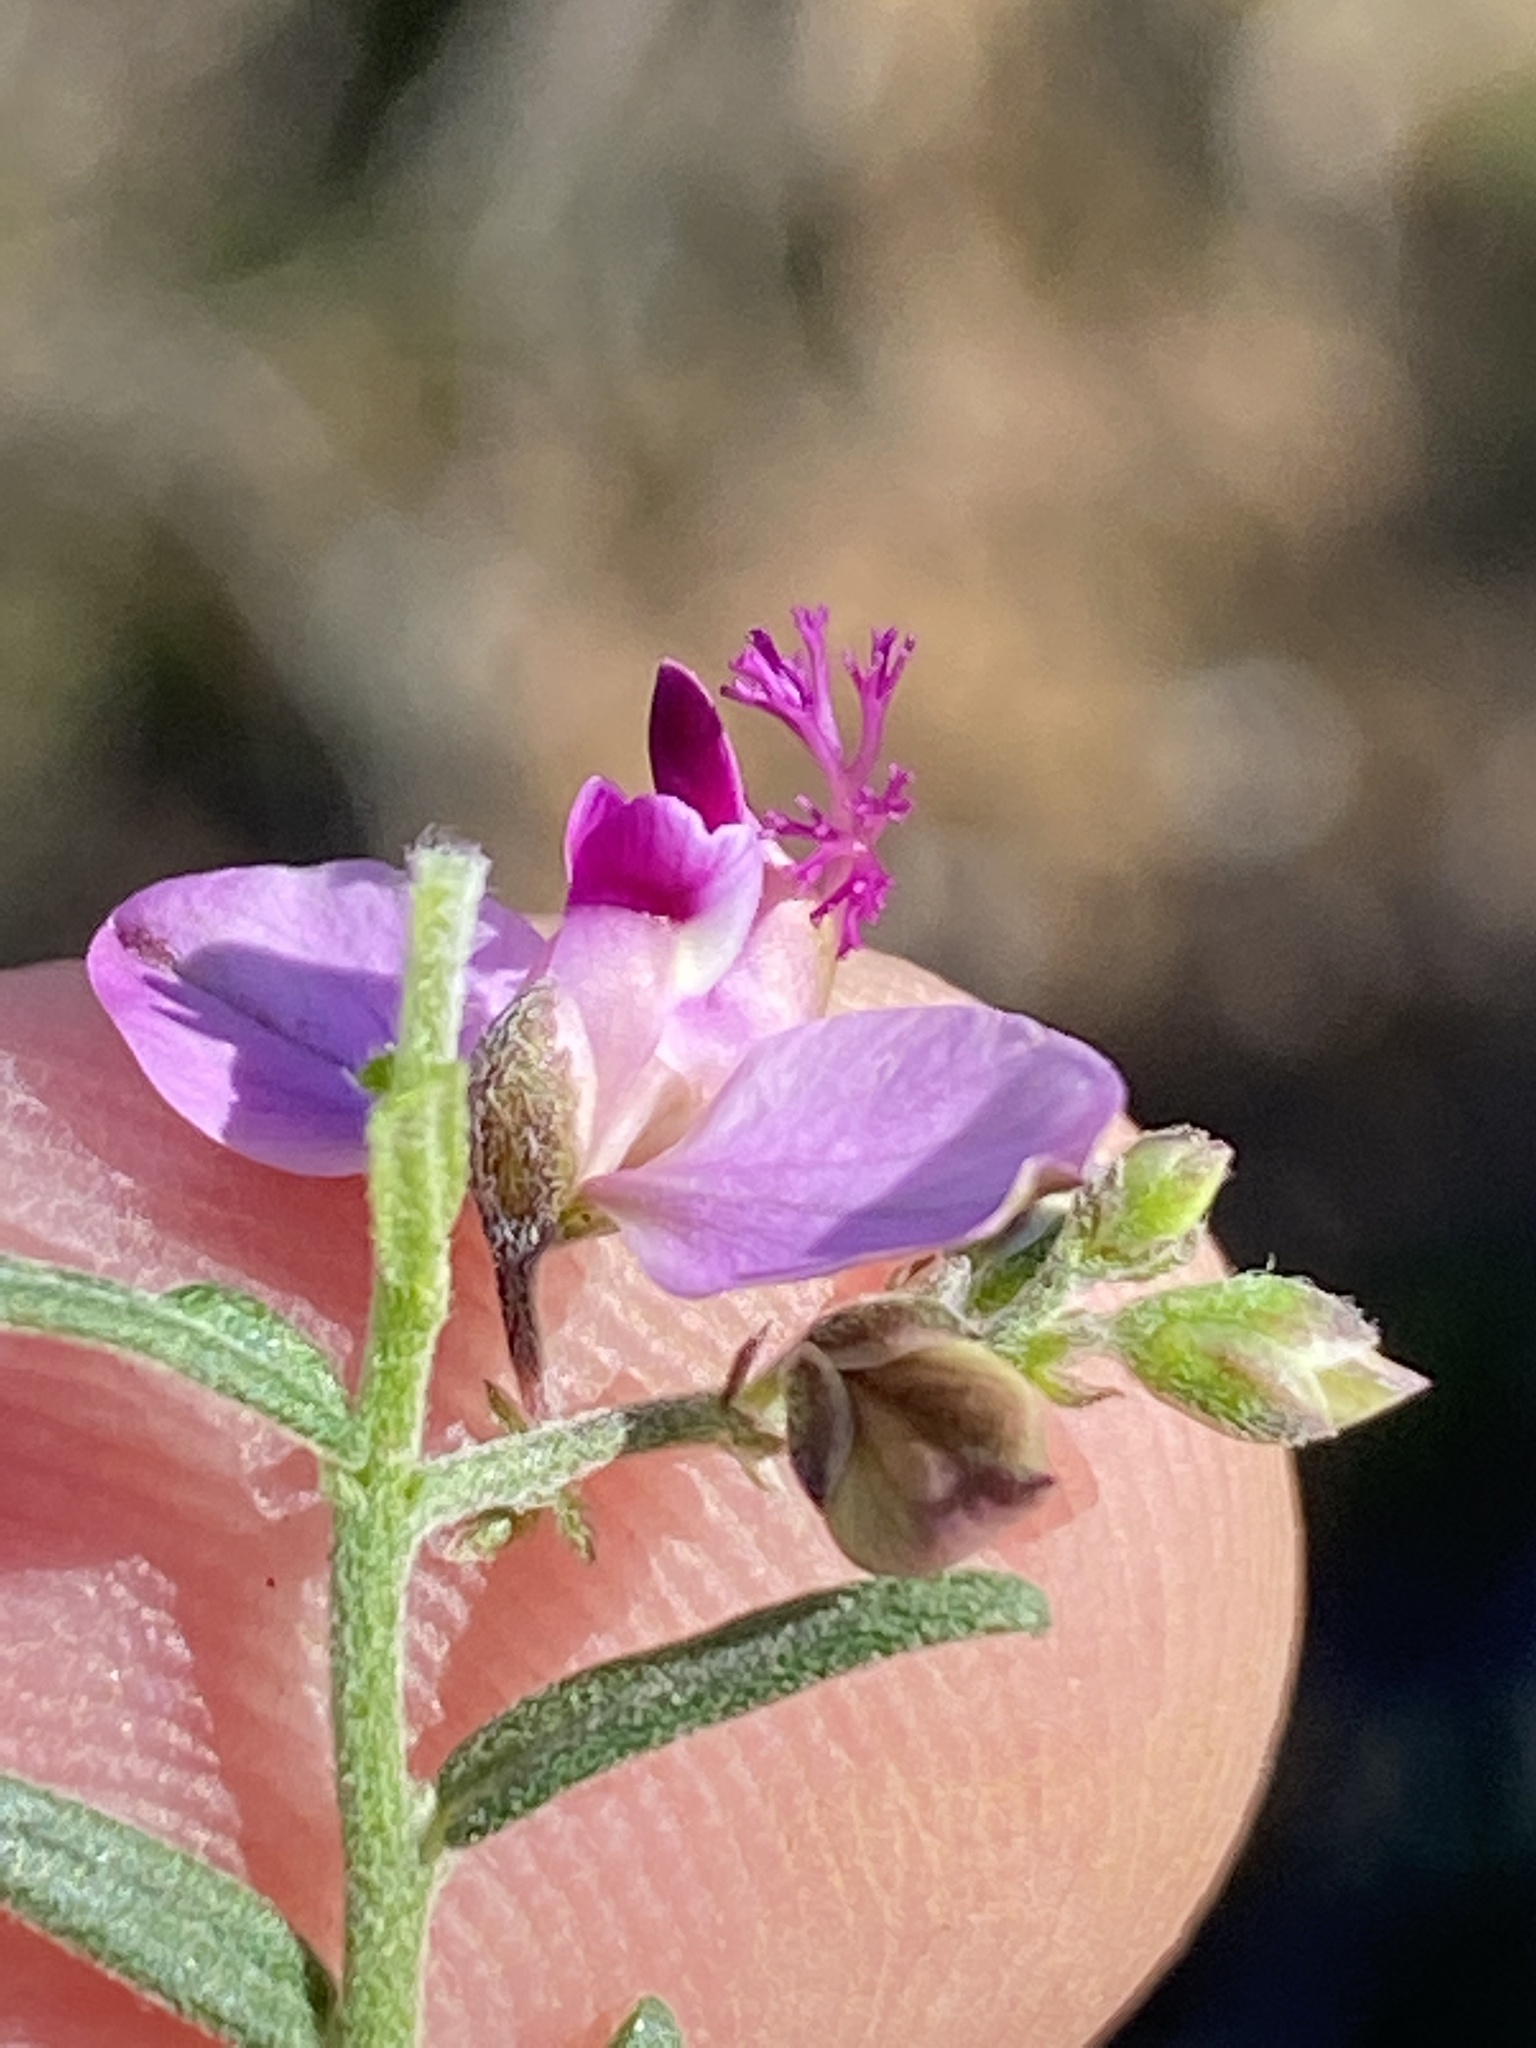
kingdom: Plantae
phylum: Tracheophyta
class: Magnoliopsida
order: Fabales
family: Polygalaceae
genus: Polygala
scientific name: Polygala scabra
